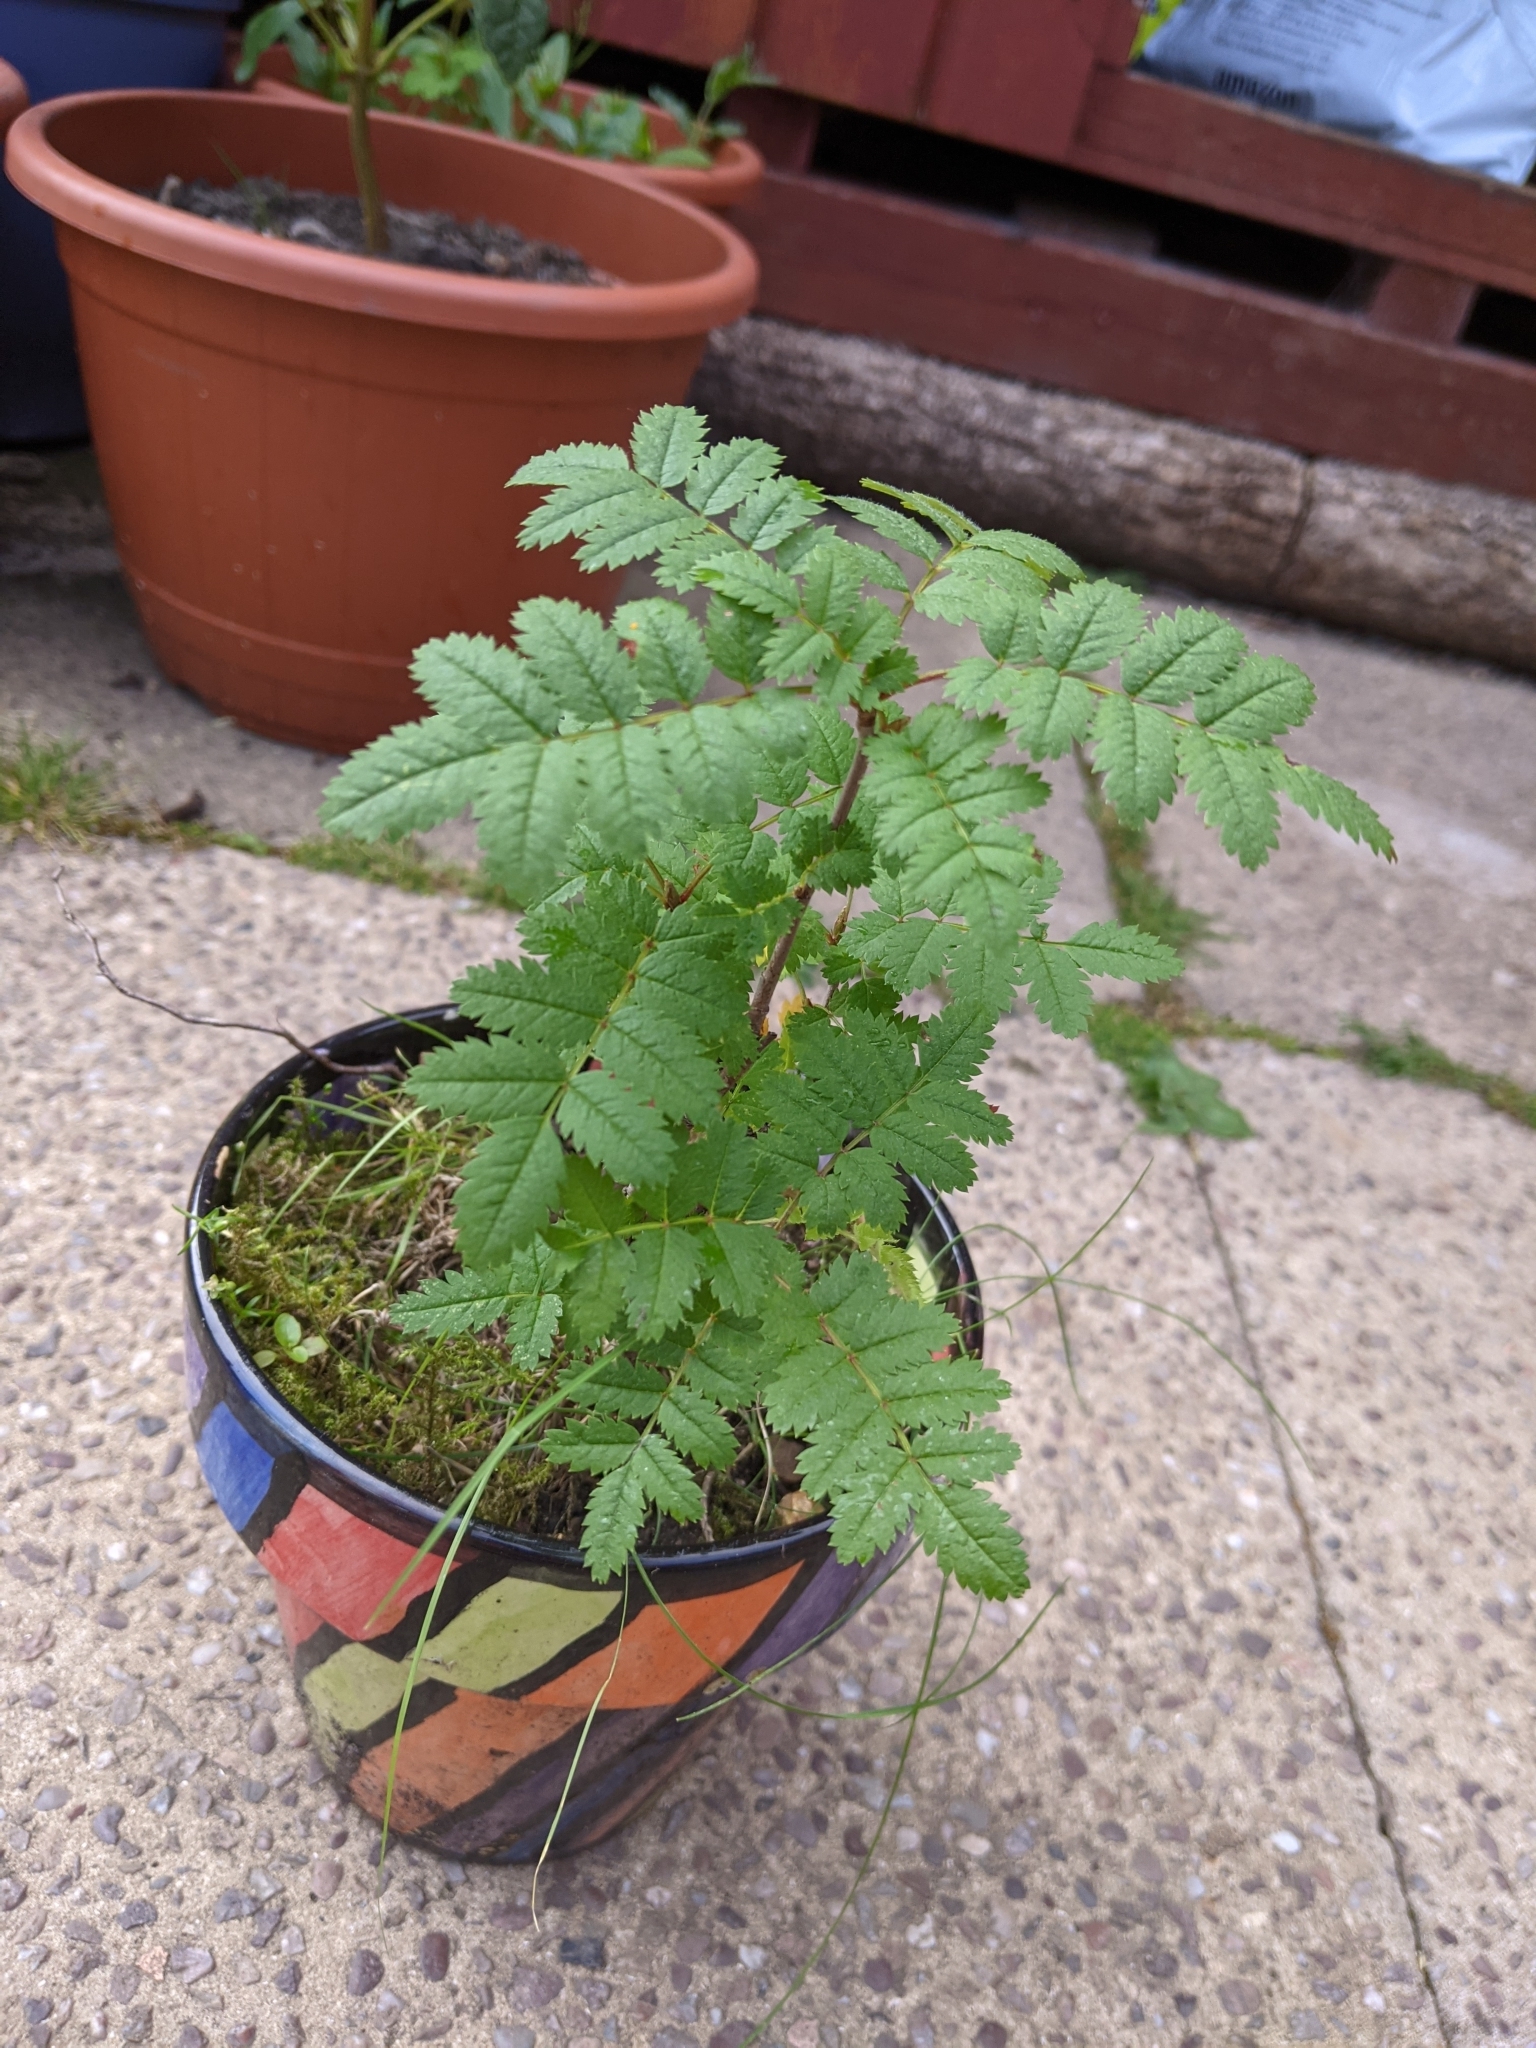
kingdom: Plantae
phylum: Tracheophyta
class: Magnoliopsida
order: Rosales
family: Rosaceae
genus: Sorbus
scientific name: Sorbus aucuparia
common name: Rowan
